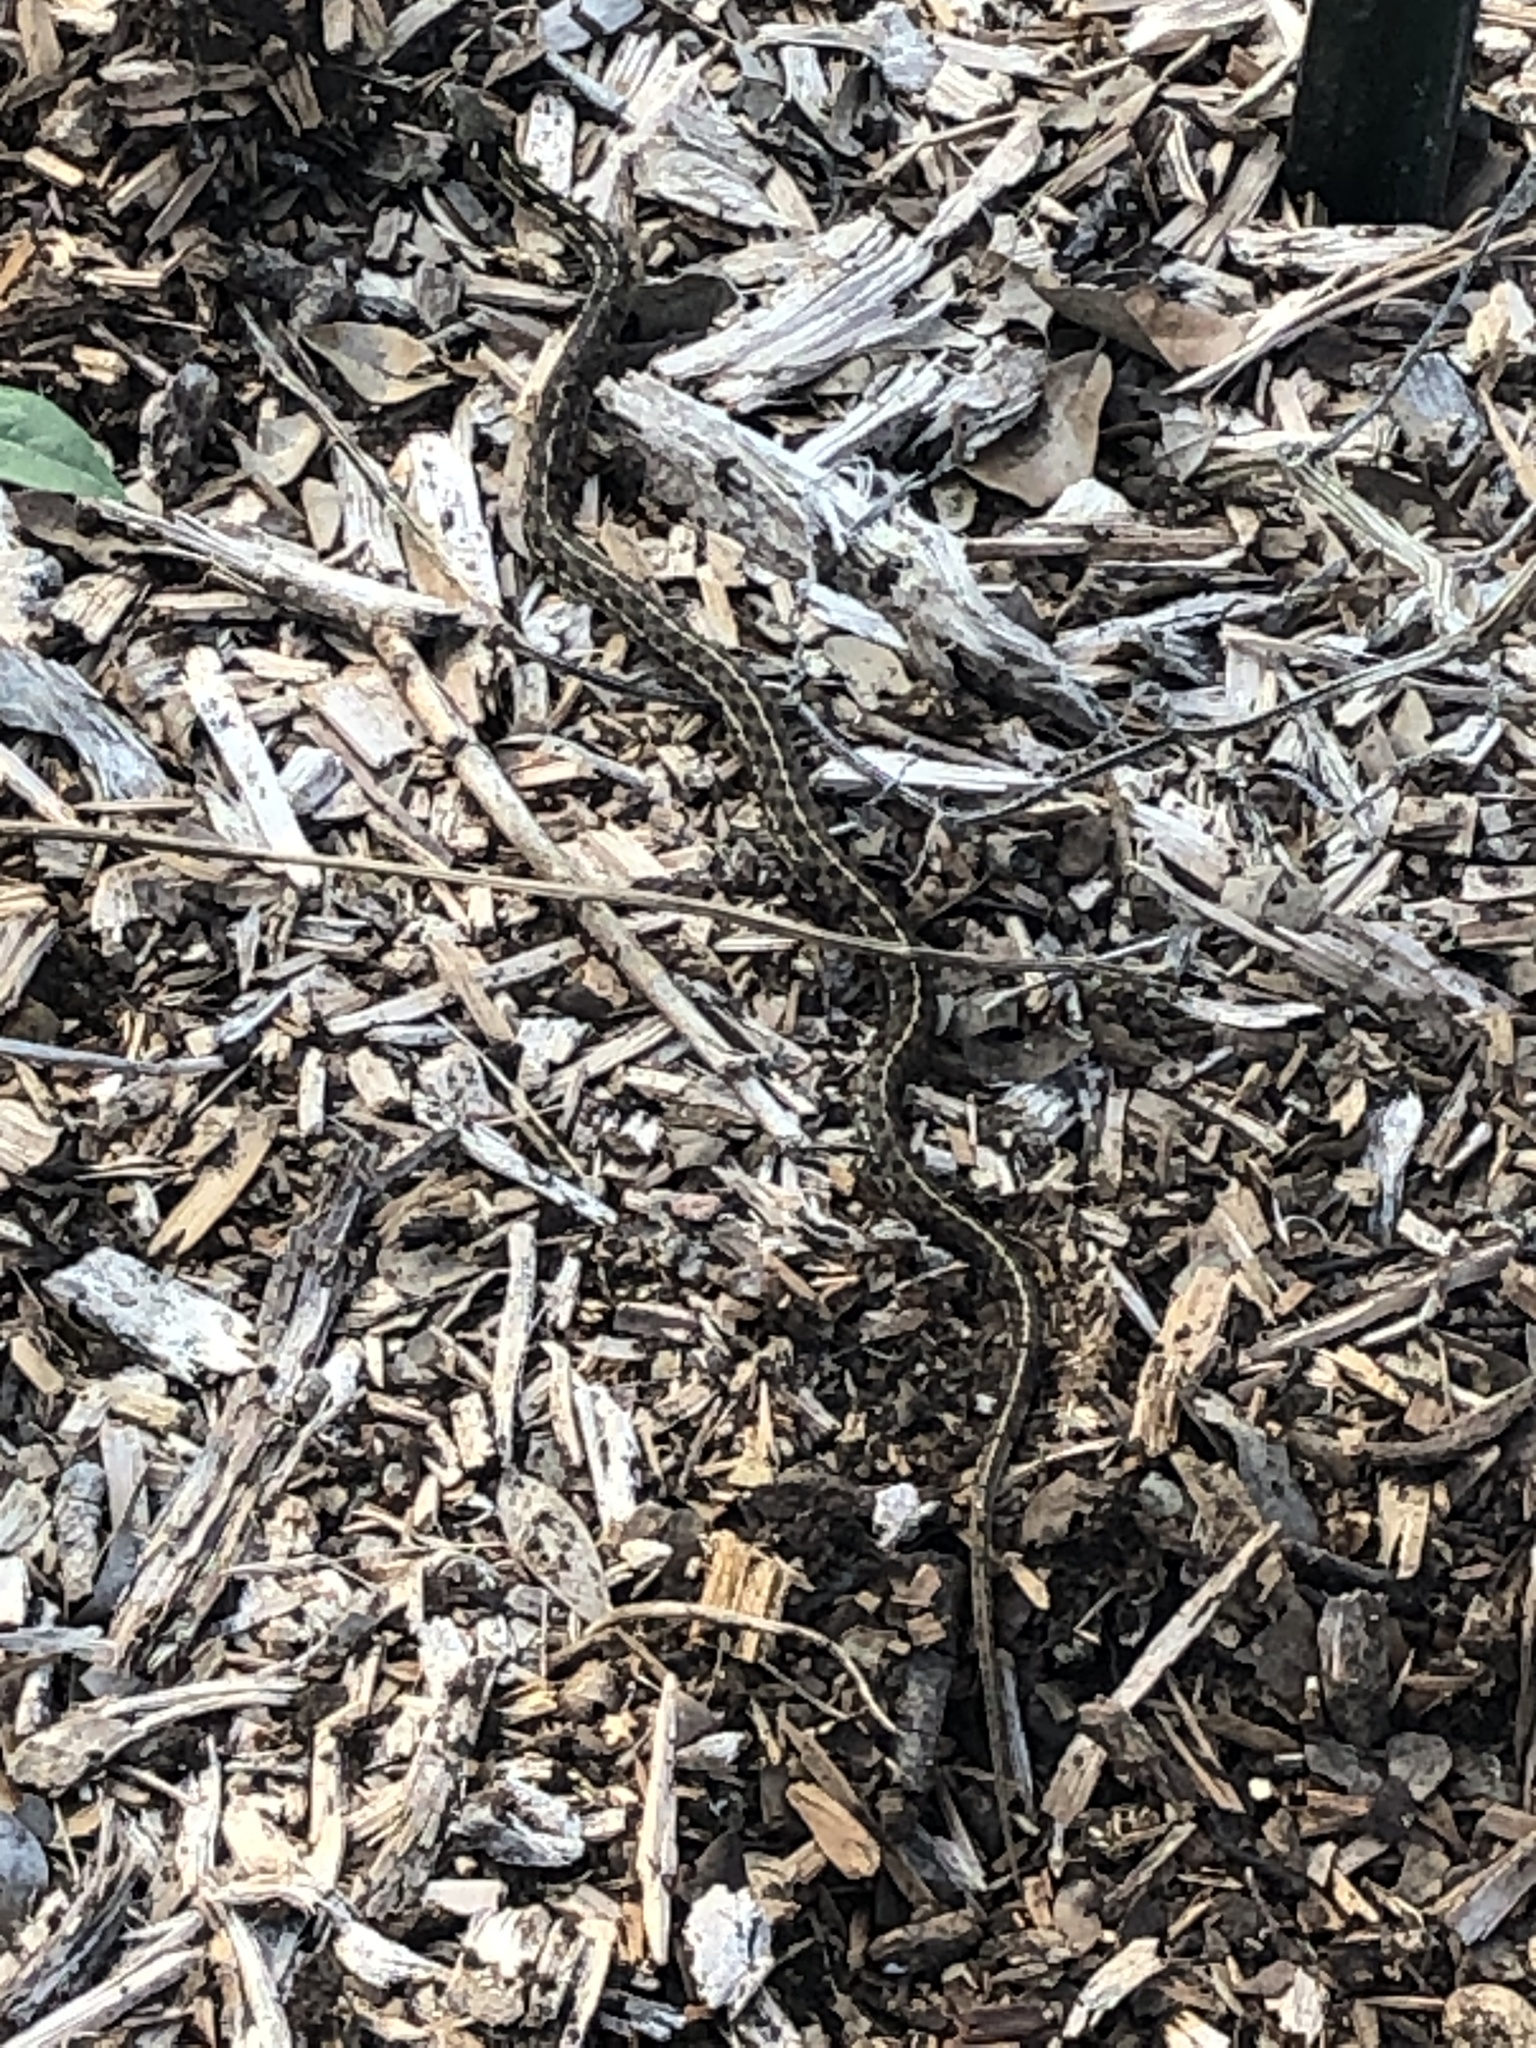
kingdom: Animalia
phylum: Chordata
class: Squamata
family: Colubridae
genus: Thamnophis
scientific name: Thamnophis marcianus
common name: Checkered garter snake
